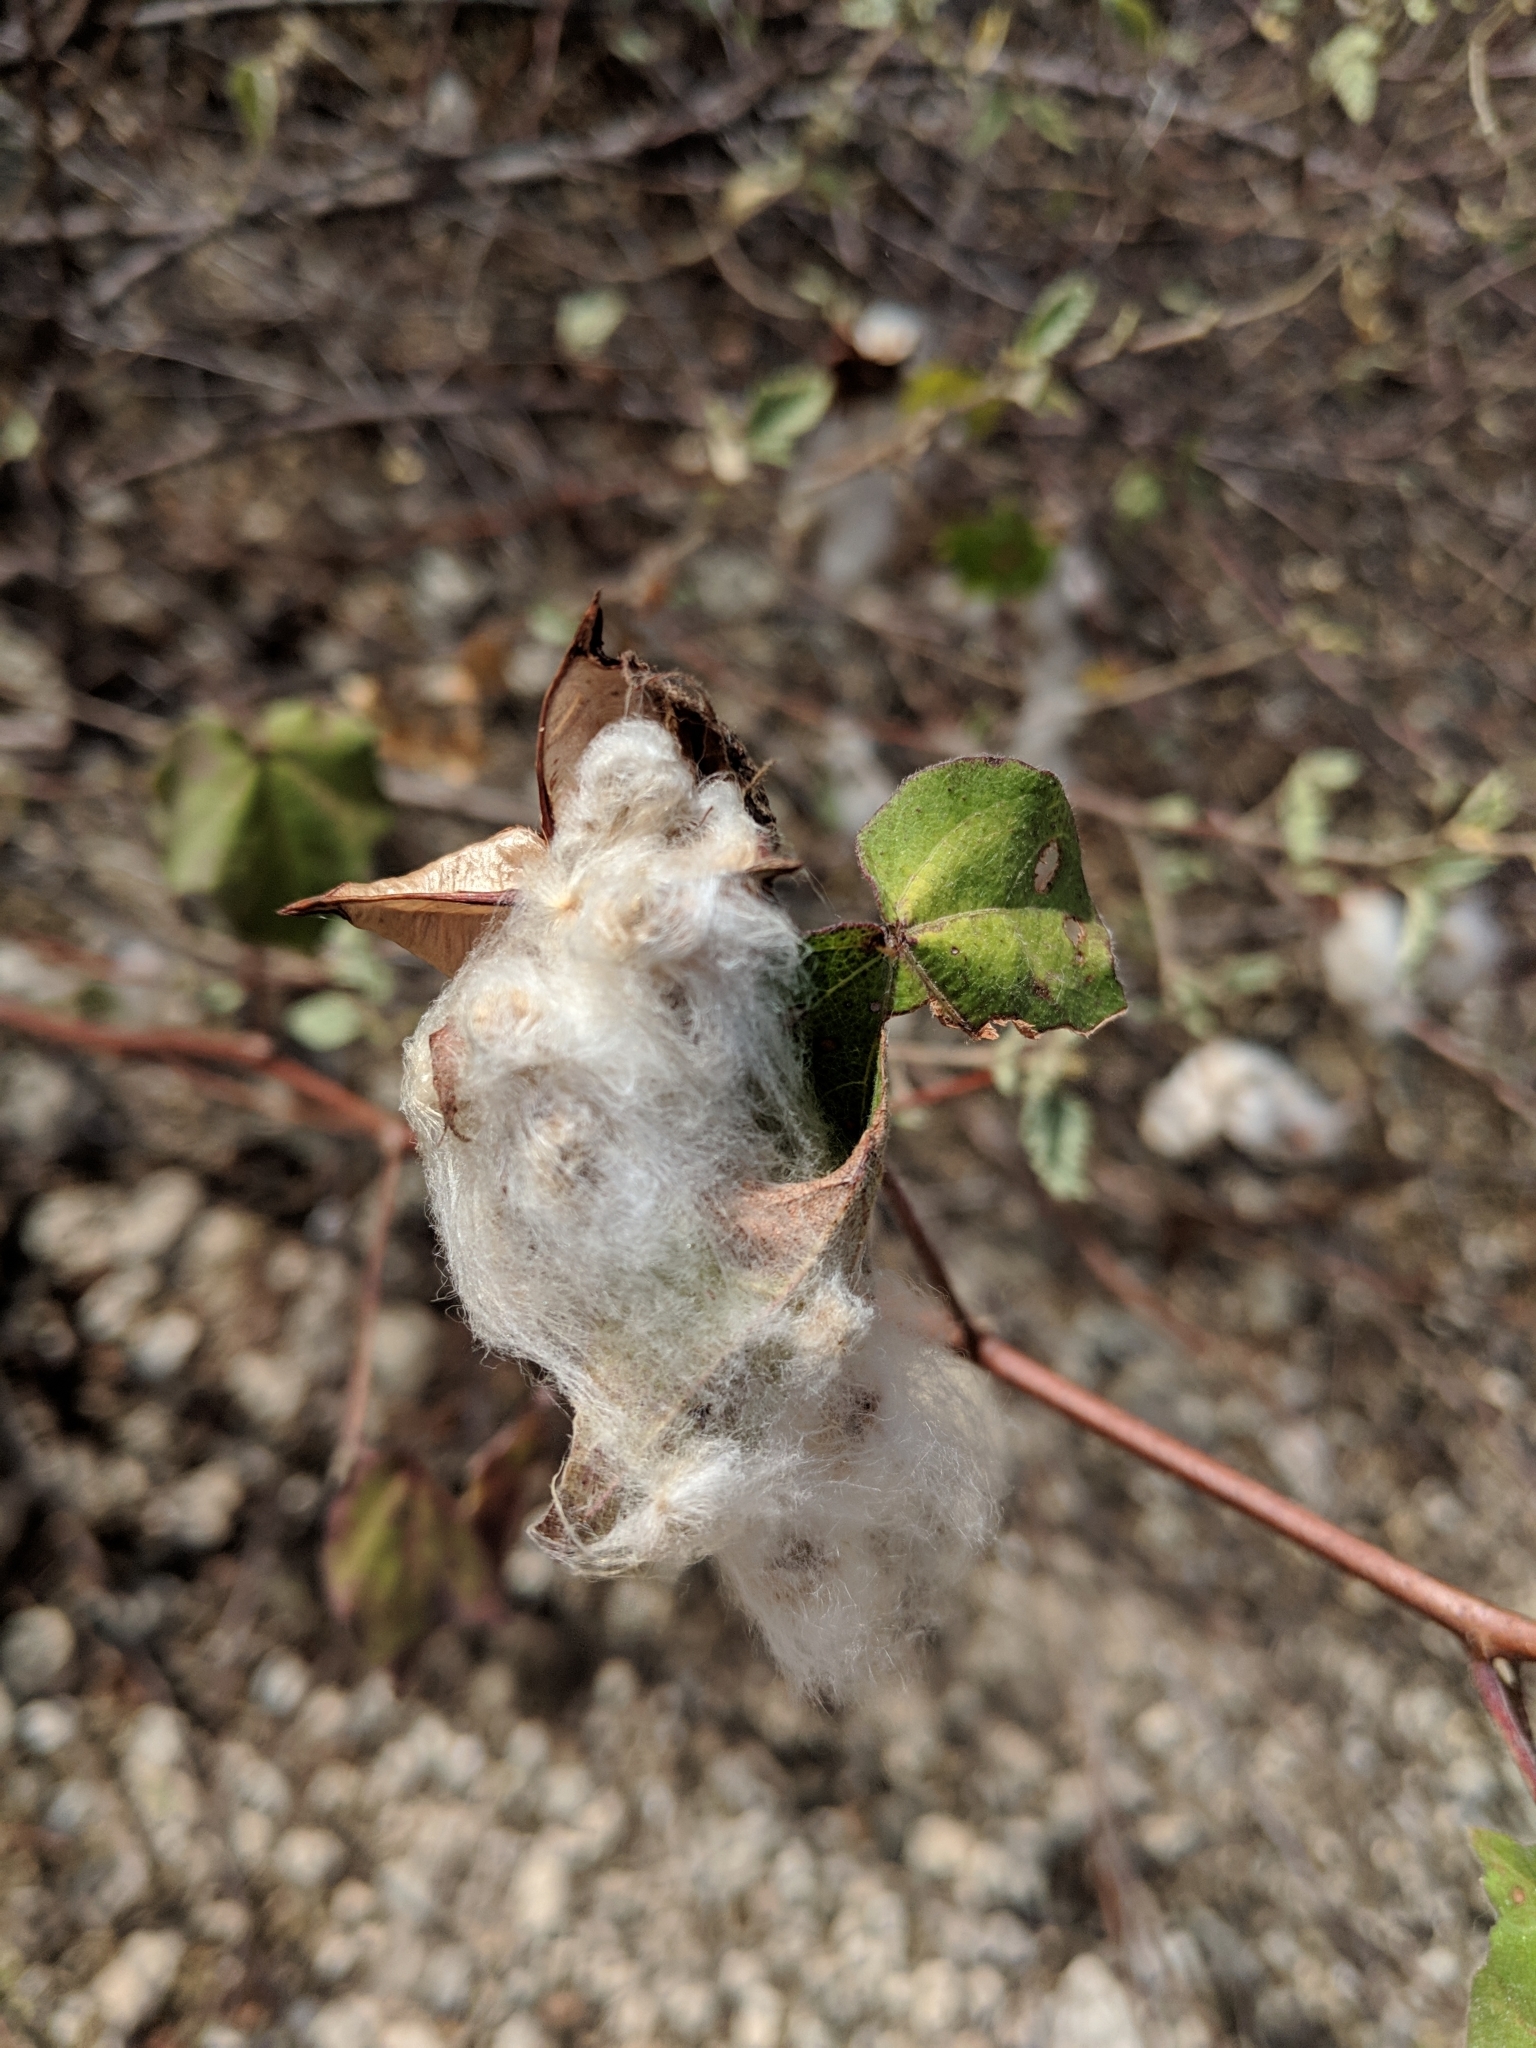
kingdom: Plantae
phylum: Tracheophyta
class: Magnoliopsida
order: Malvales
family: Malvaceae
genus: Gossypium
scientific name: Gossypium hirsutum
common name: Cotton
